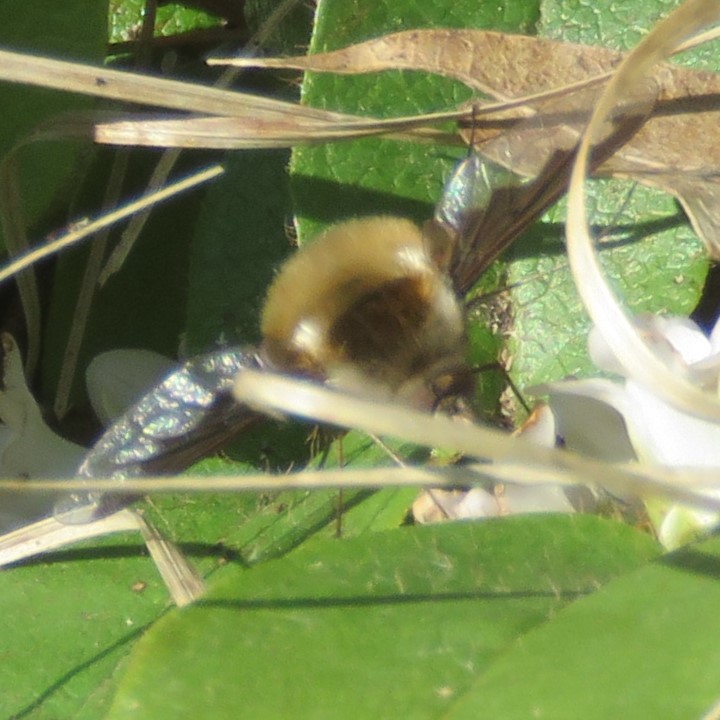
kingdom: Animalia
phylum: Arthropoda
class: Insecta
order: Diptera
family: Bombyliidae
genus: Bombylius
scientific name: Bombylius major
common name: Bee fly
